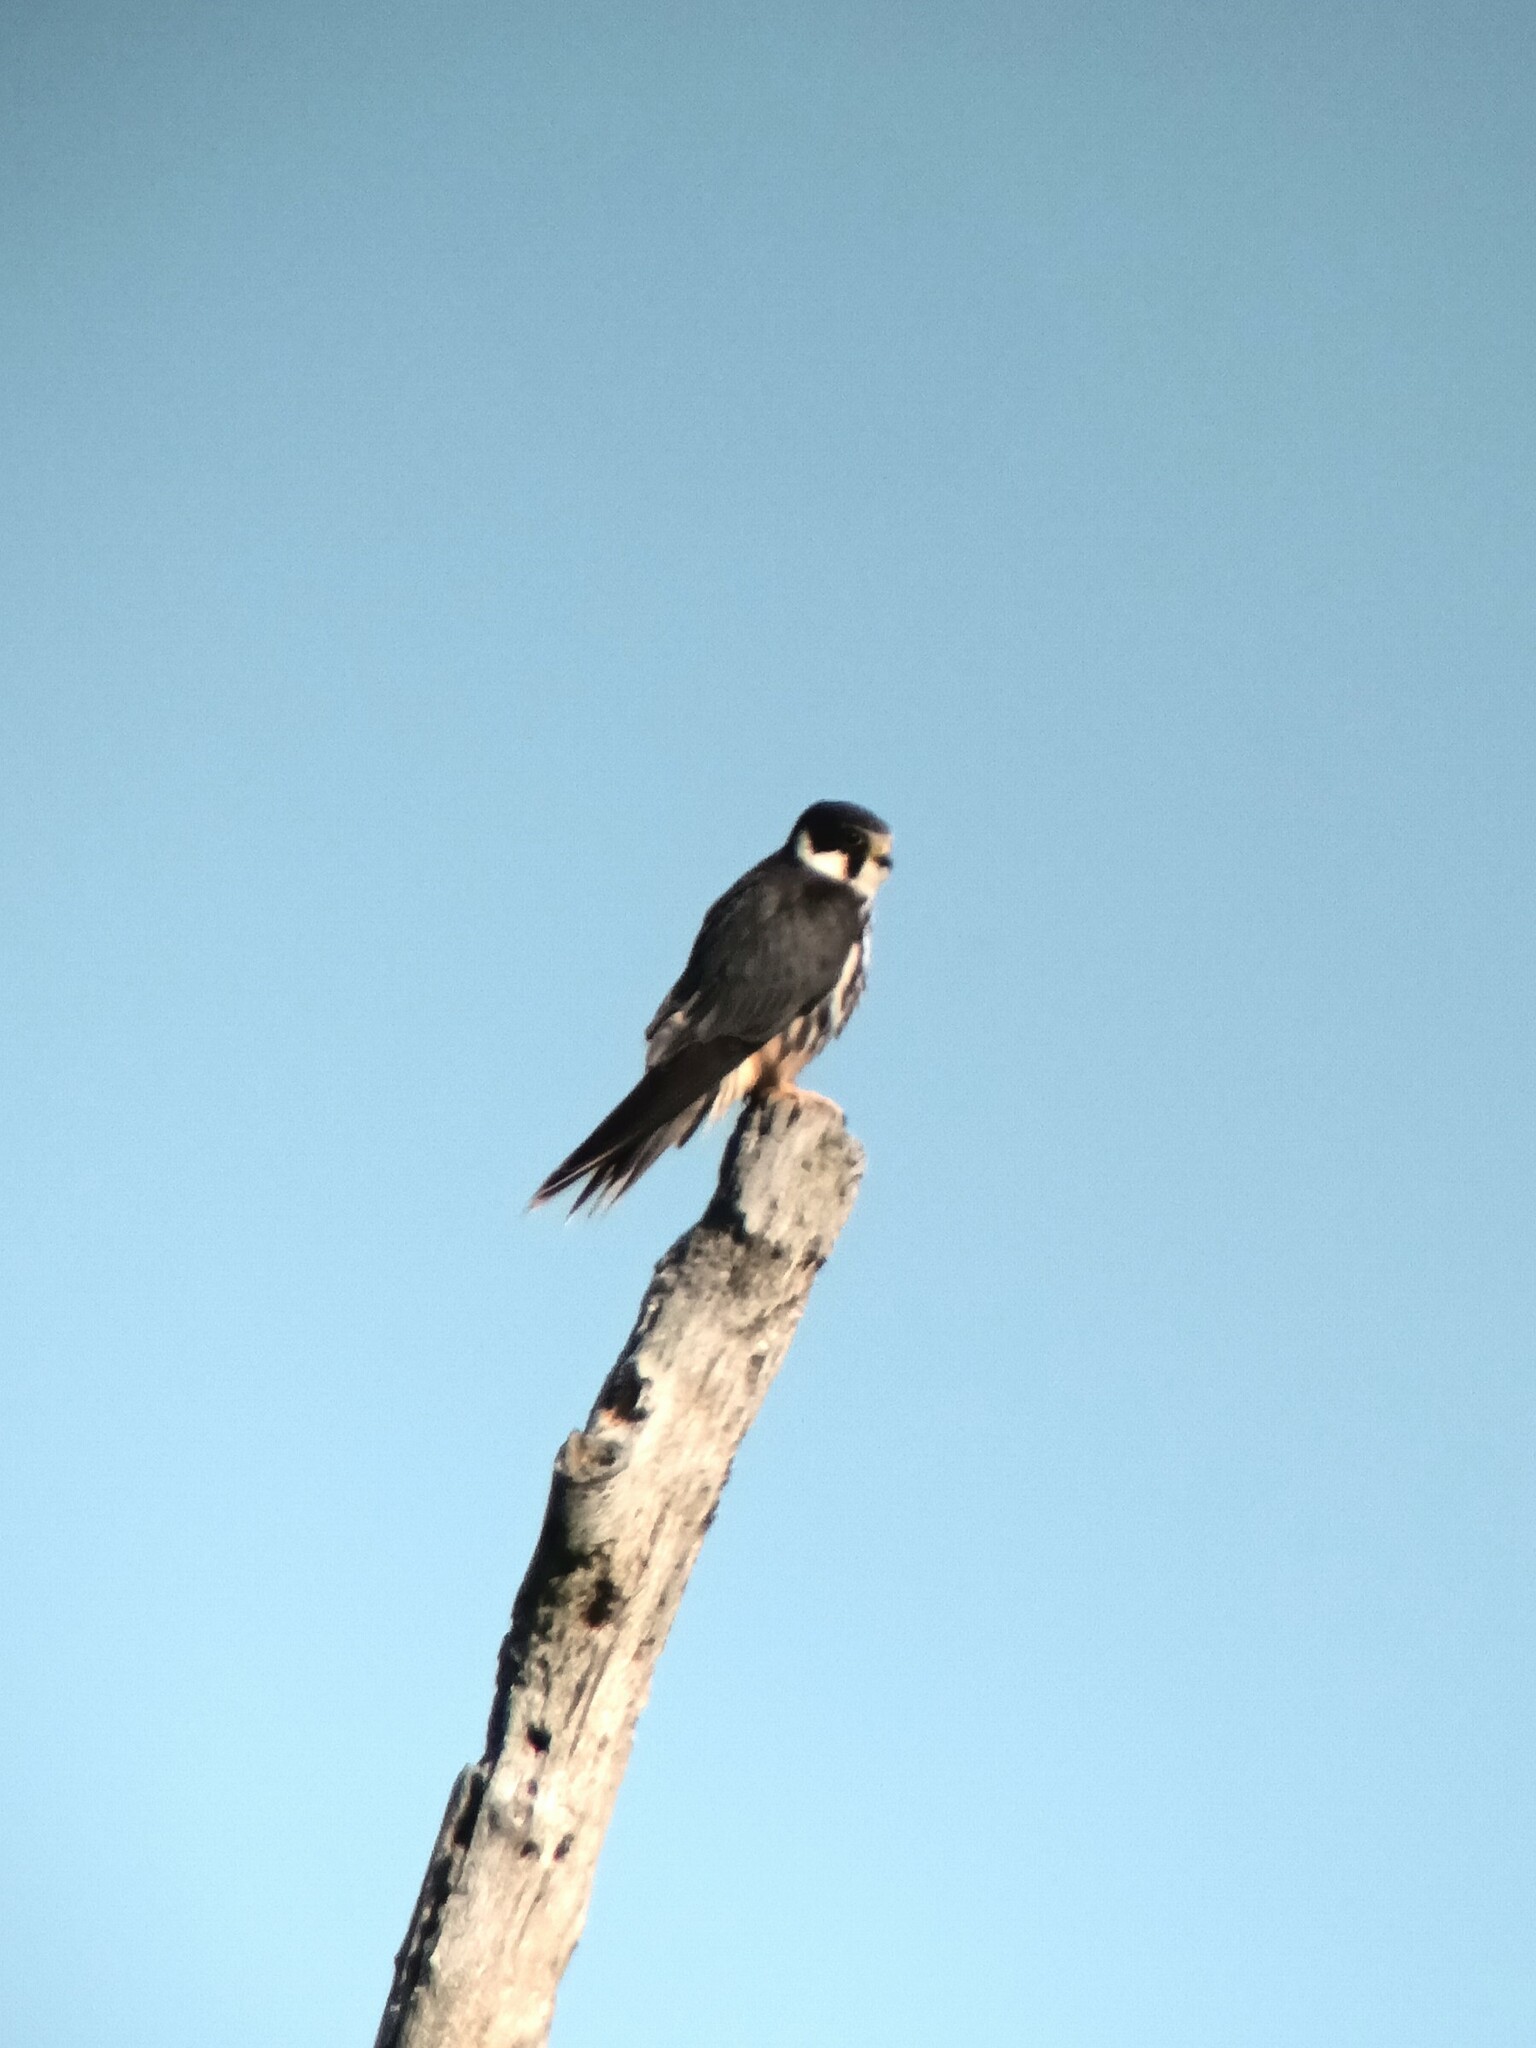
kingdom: Animalia
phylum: Chordata
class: Aves
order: Falconiformes
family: Falconidae
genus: Falco
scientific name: Falco subbuteo
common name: Eurasian hobby
